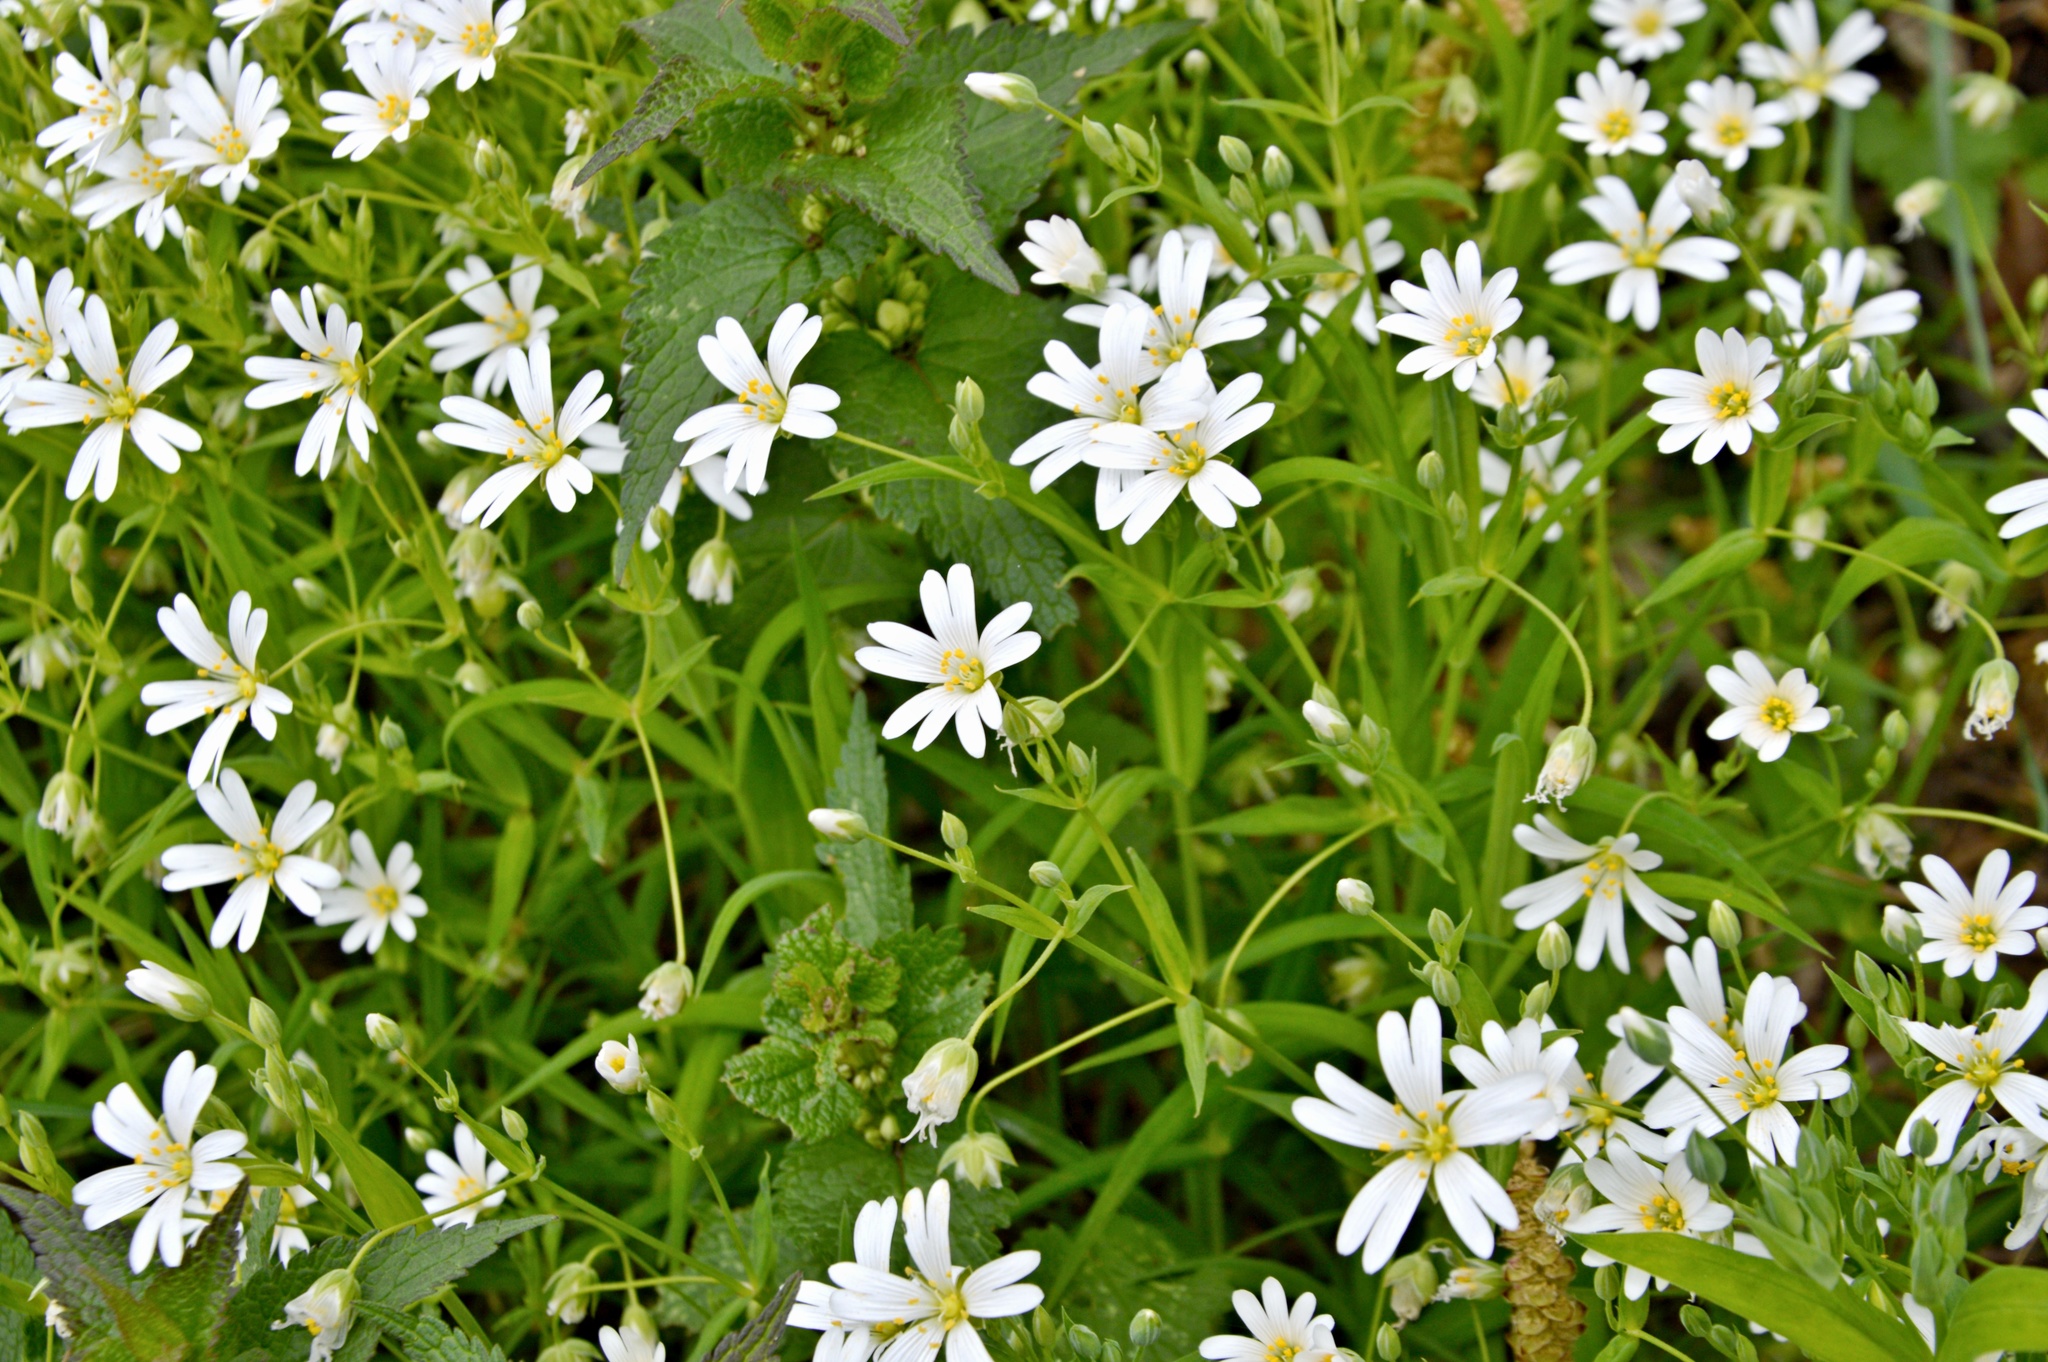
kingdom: Plantae
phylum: Tracheophyta
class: Magnoliopsida
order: Caryophyllales
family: Caryophyllaceae
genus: Rabelera
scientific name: Rabelera holostea
